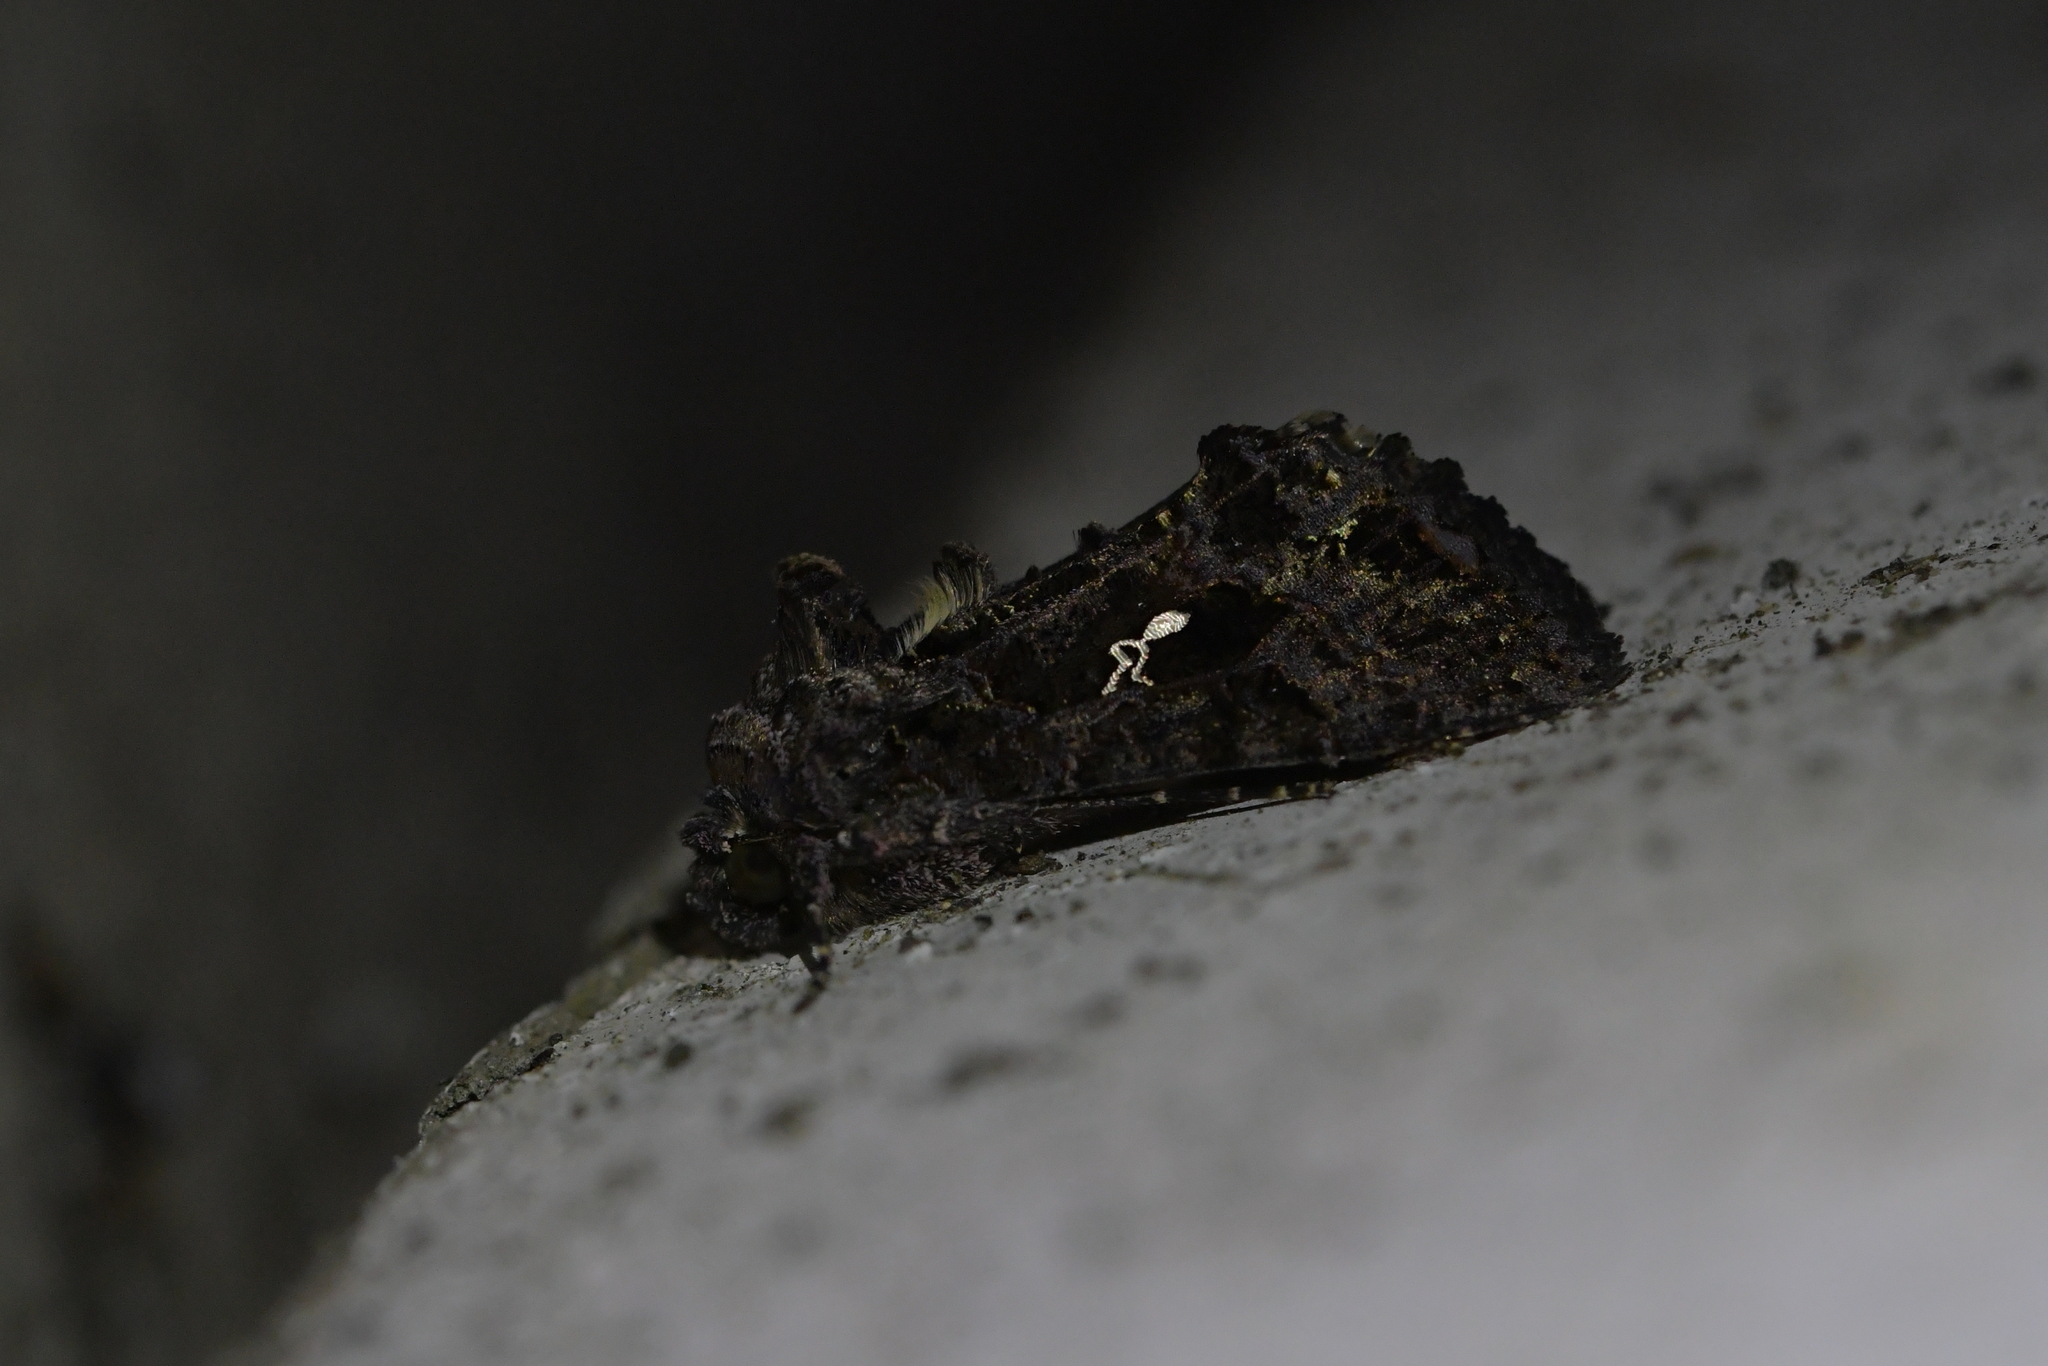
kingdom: Animalia
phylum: Arthropoda
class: Insecta
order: Lepidoptera
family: Noctuidae
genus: Ctenoplusia
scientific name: Ctenoplusia limbirena
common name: Scar bank gem
